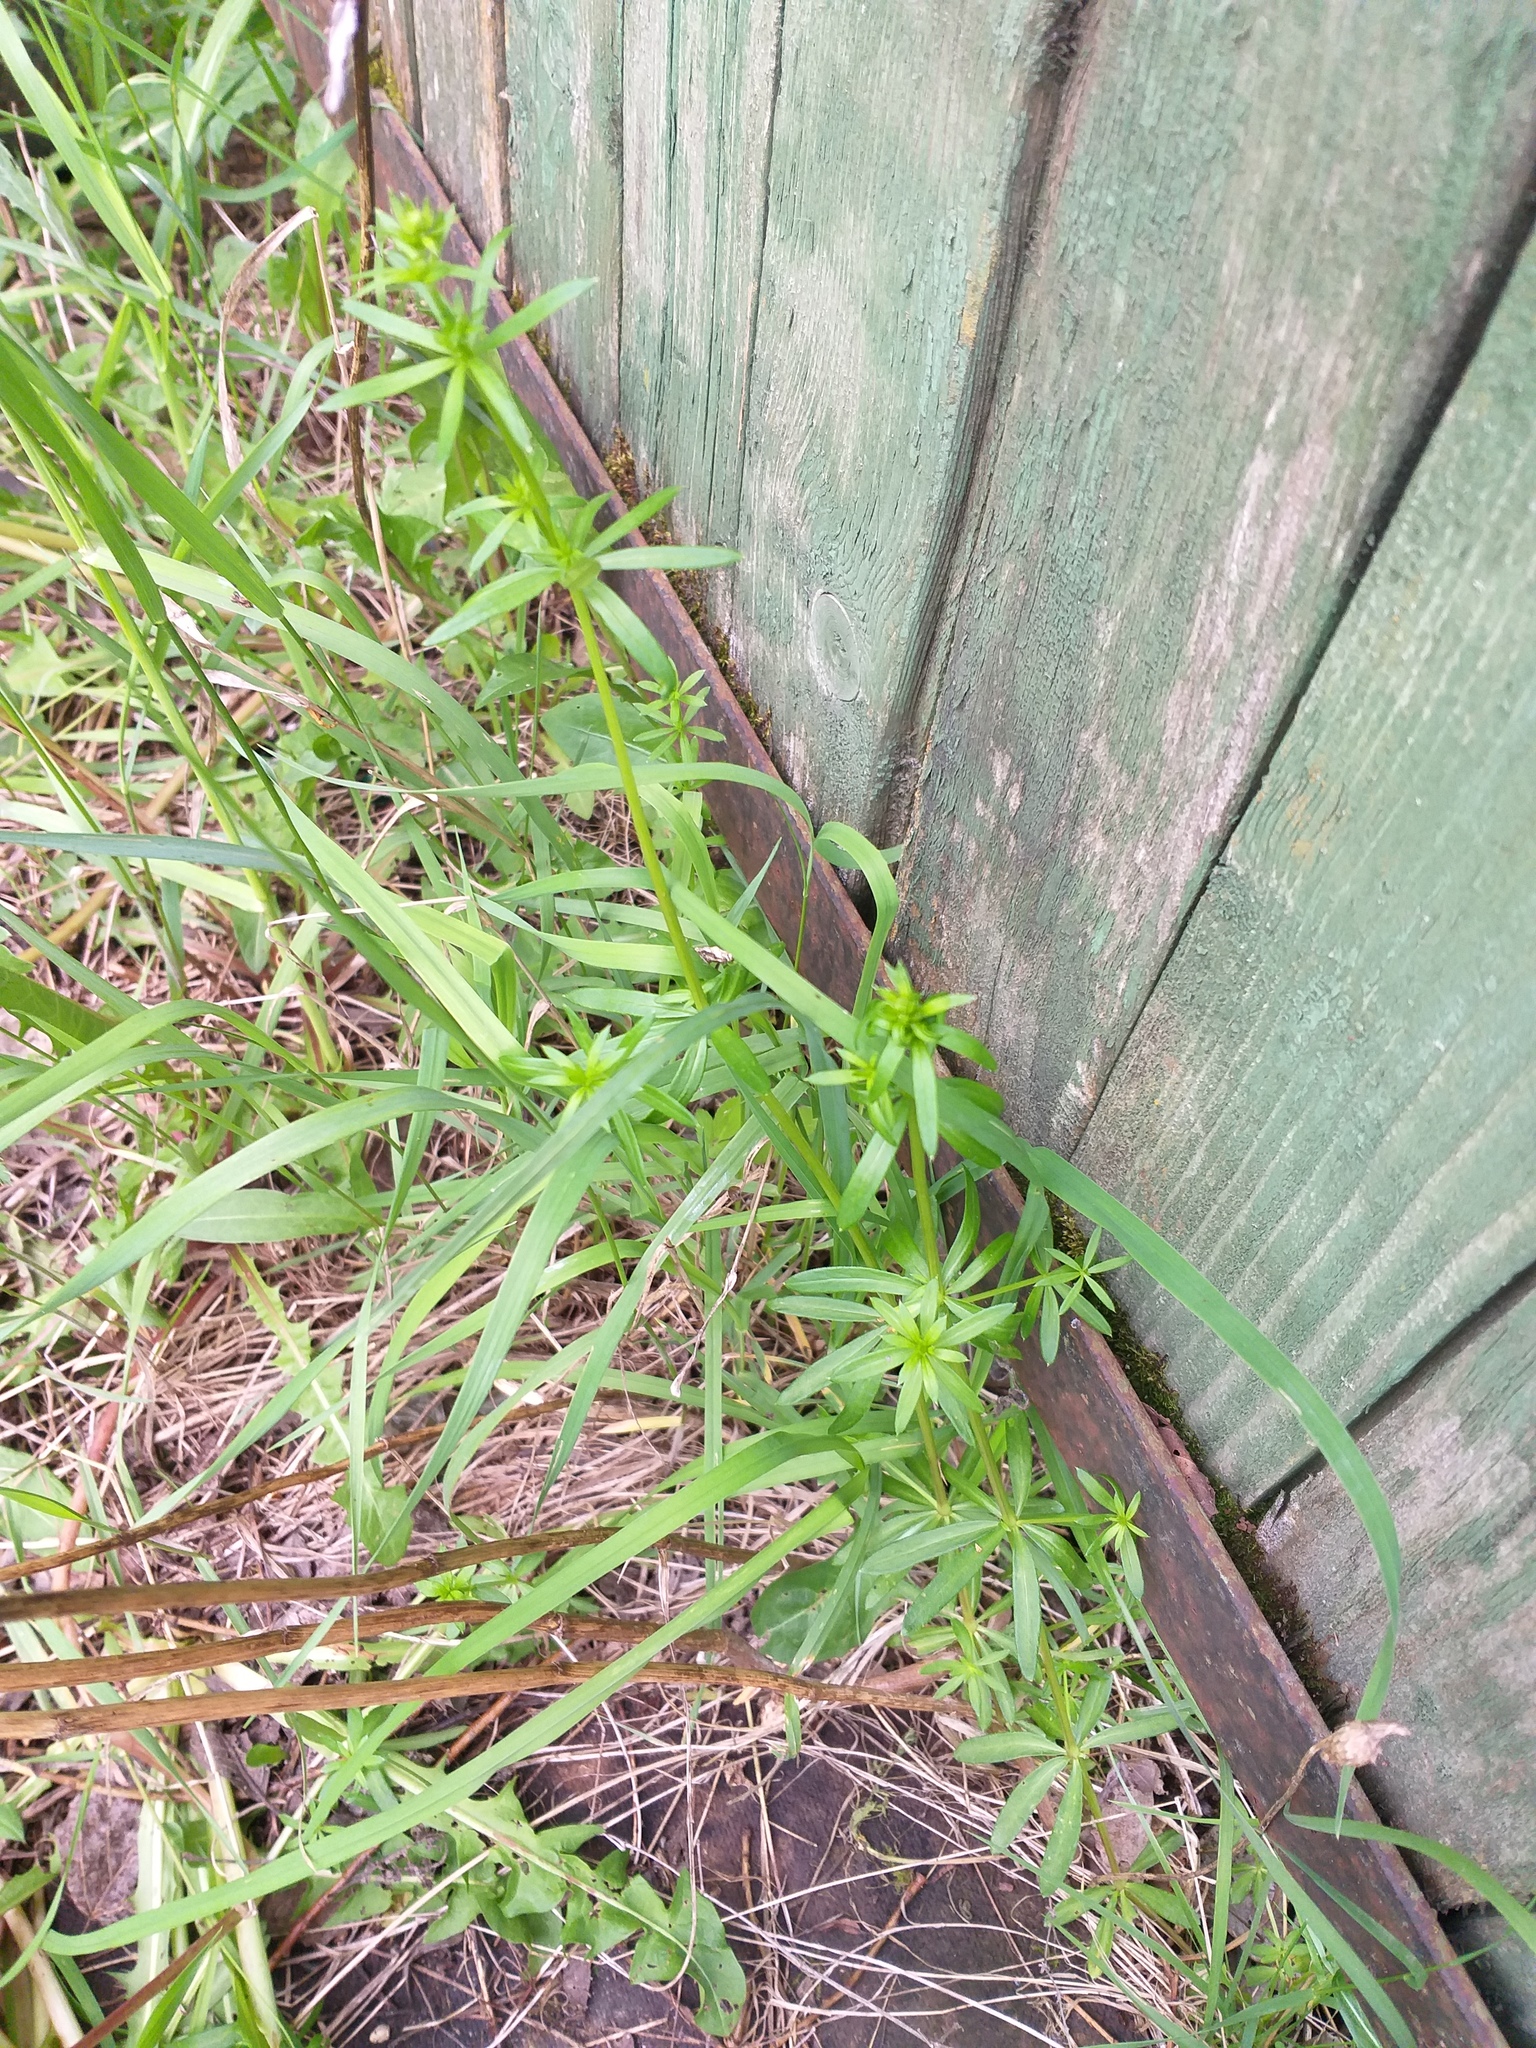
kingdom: Plantae
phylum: Tracheophyta
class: Magnoliopsida
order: Gentianales
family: Rubiaceae
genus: Galium
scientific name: Galium mollugo
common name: Hedge bedstraw
